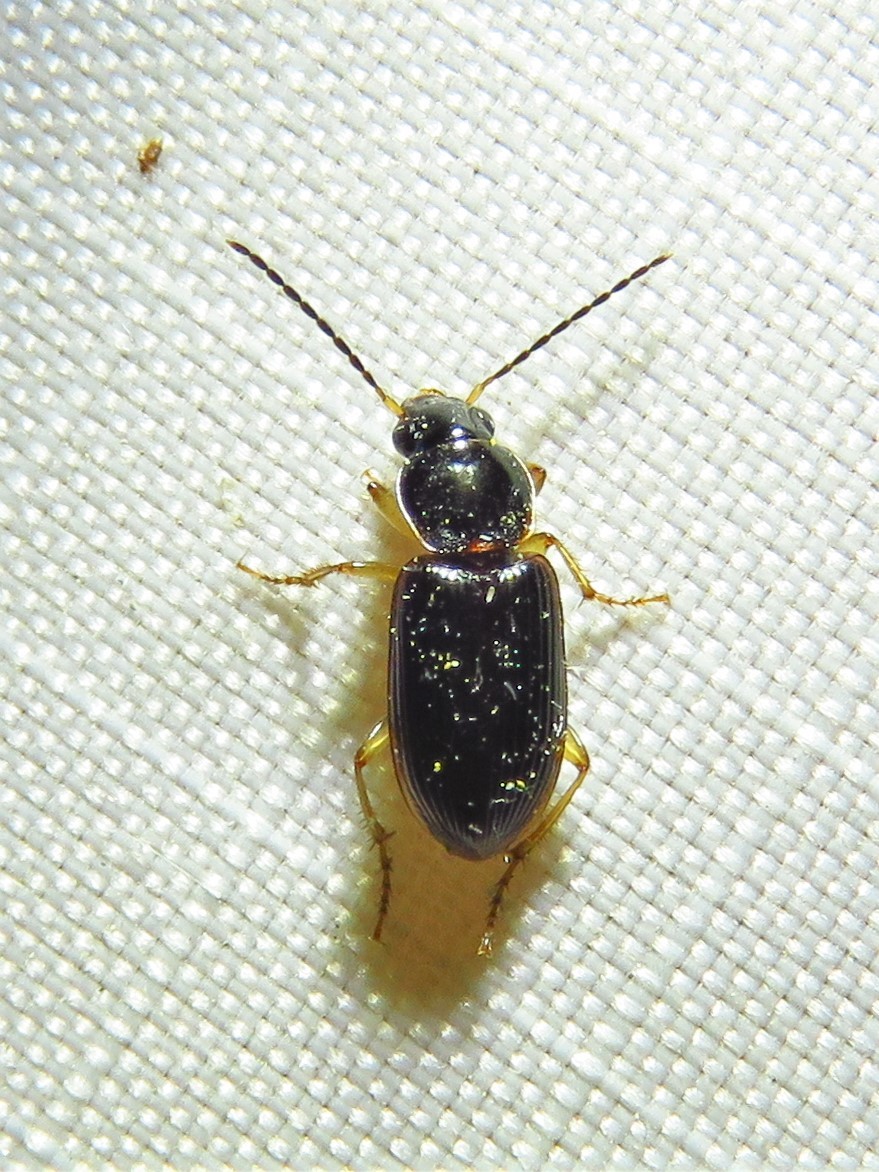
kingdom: Animalia
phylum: Arthropoda
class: Insecta
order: Coleoptera
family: Carabidae
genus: Stenolophus
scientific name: Stenolophus ochropezus
